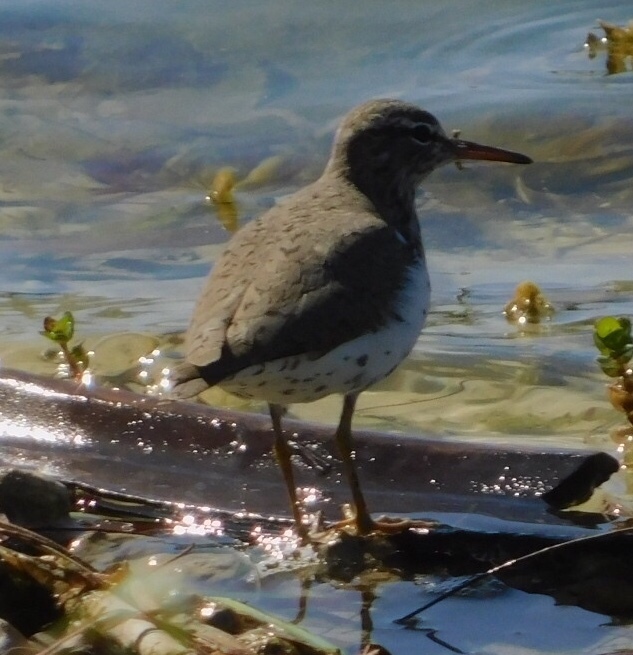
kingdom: Animalia
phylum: Chordata
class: Aves
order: Charadriiformes
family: Scolopacidae
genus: Actitis
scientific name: Actitis macularius
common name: Spotted sandpiper
